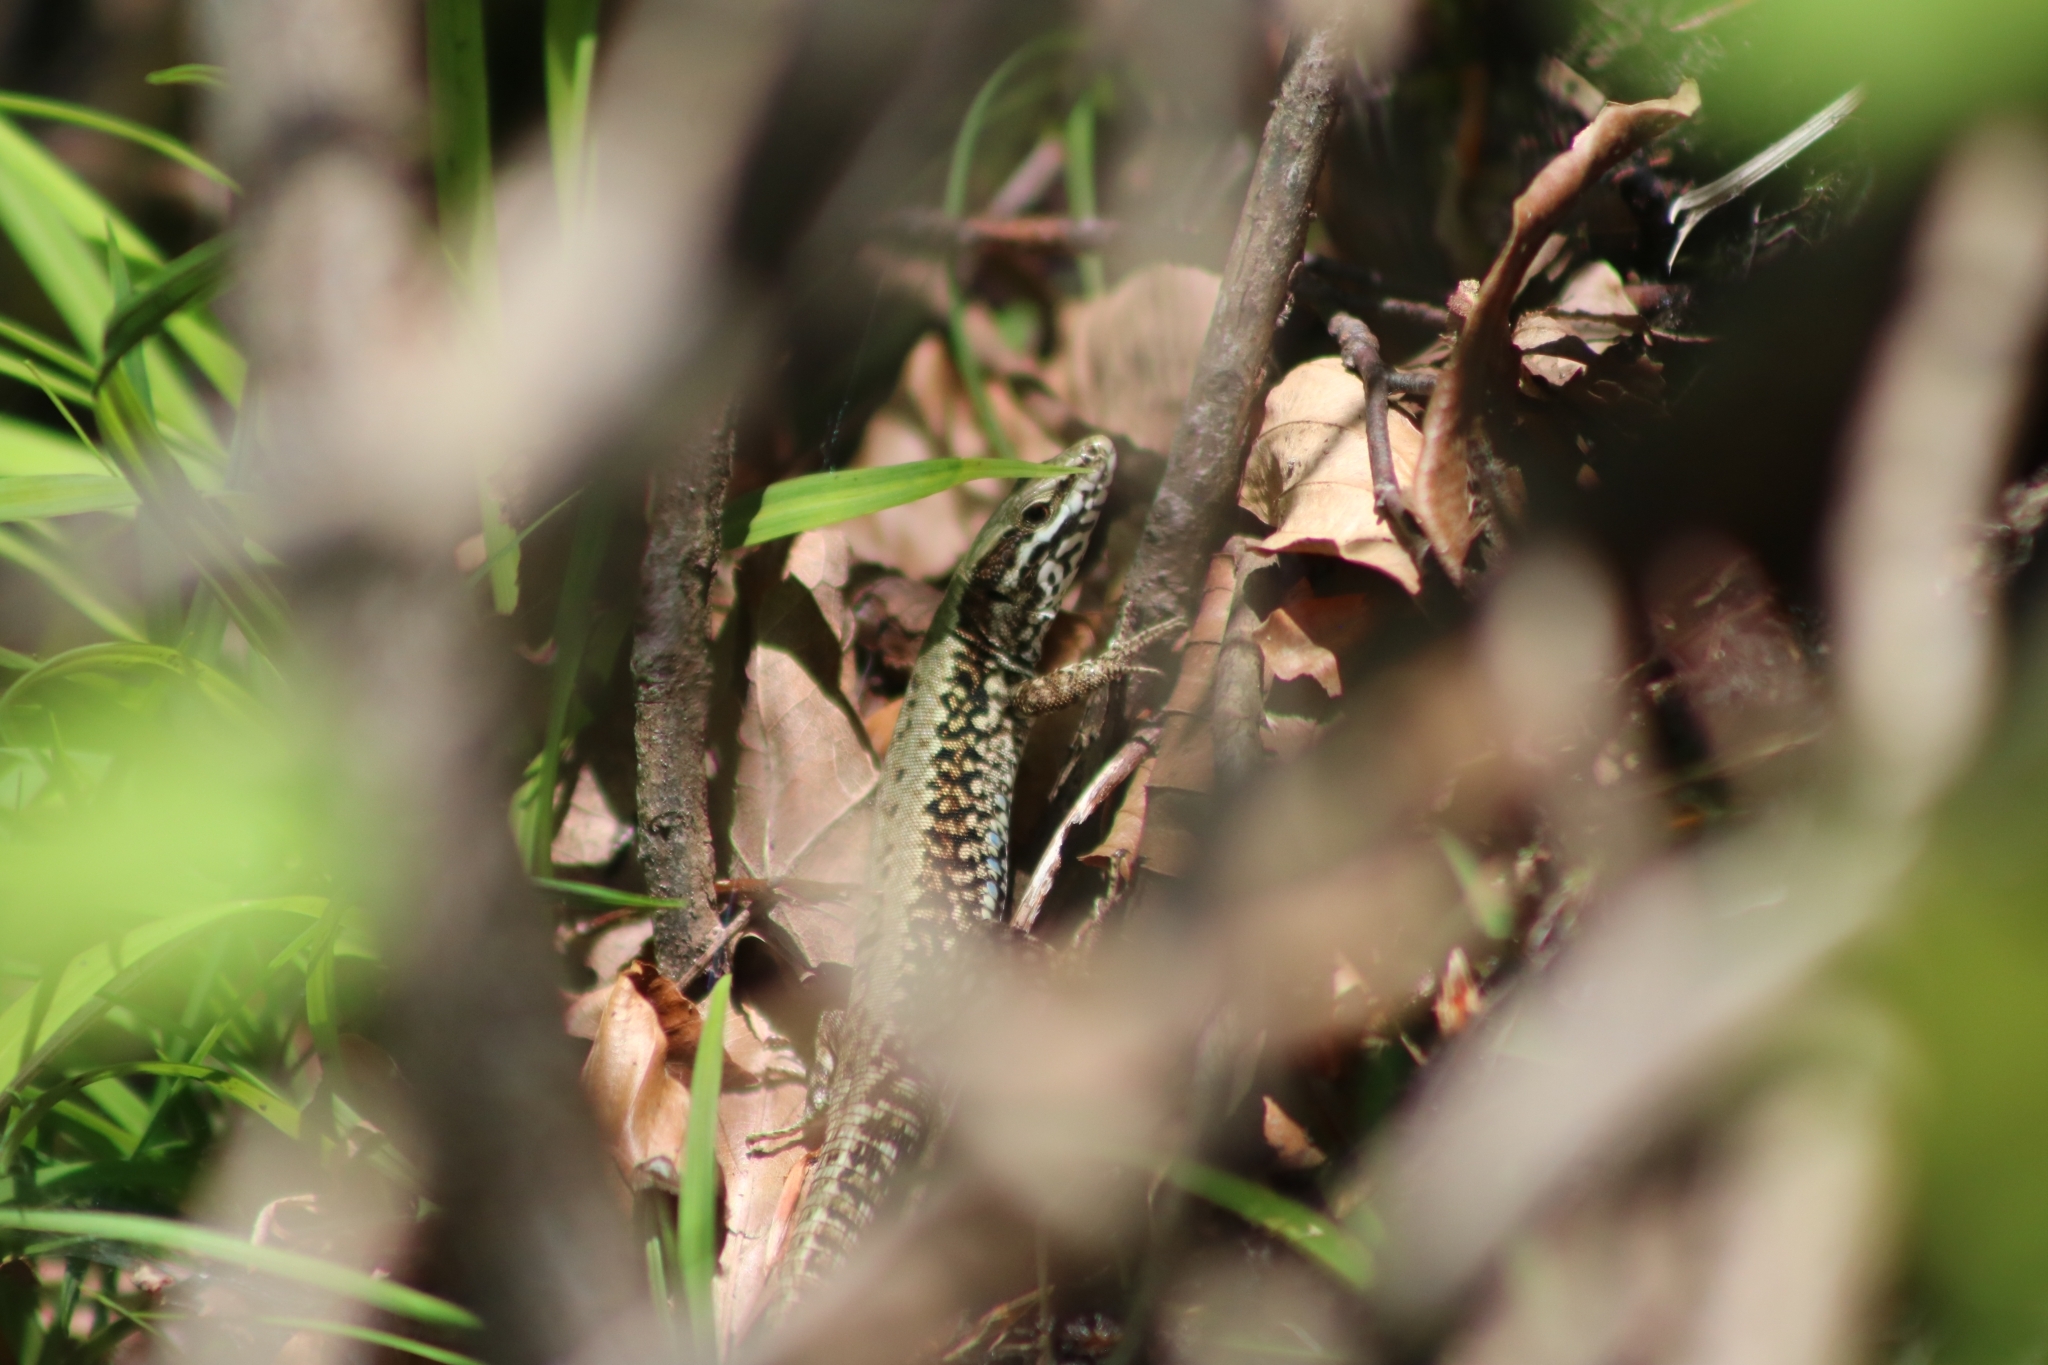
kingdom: Animalia
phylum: Chordata
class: Squamata
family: Lacertidae
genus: Podarcis
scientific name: Podarcis muralis
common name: Common wall lizard
